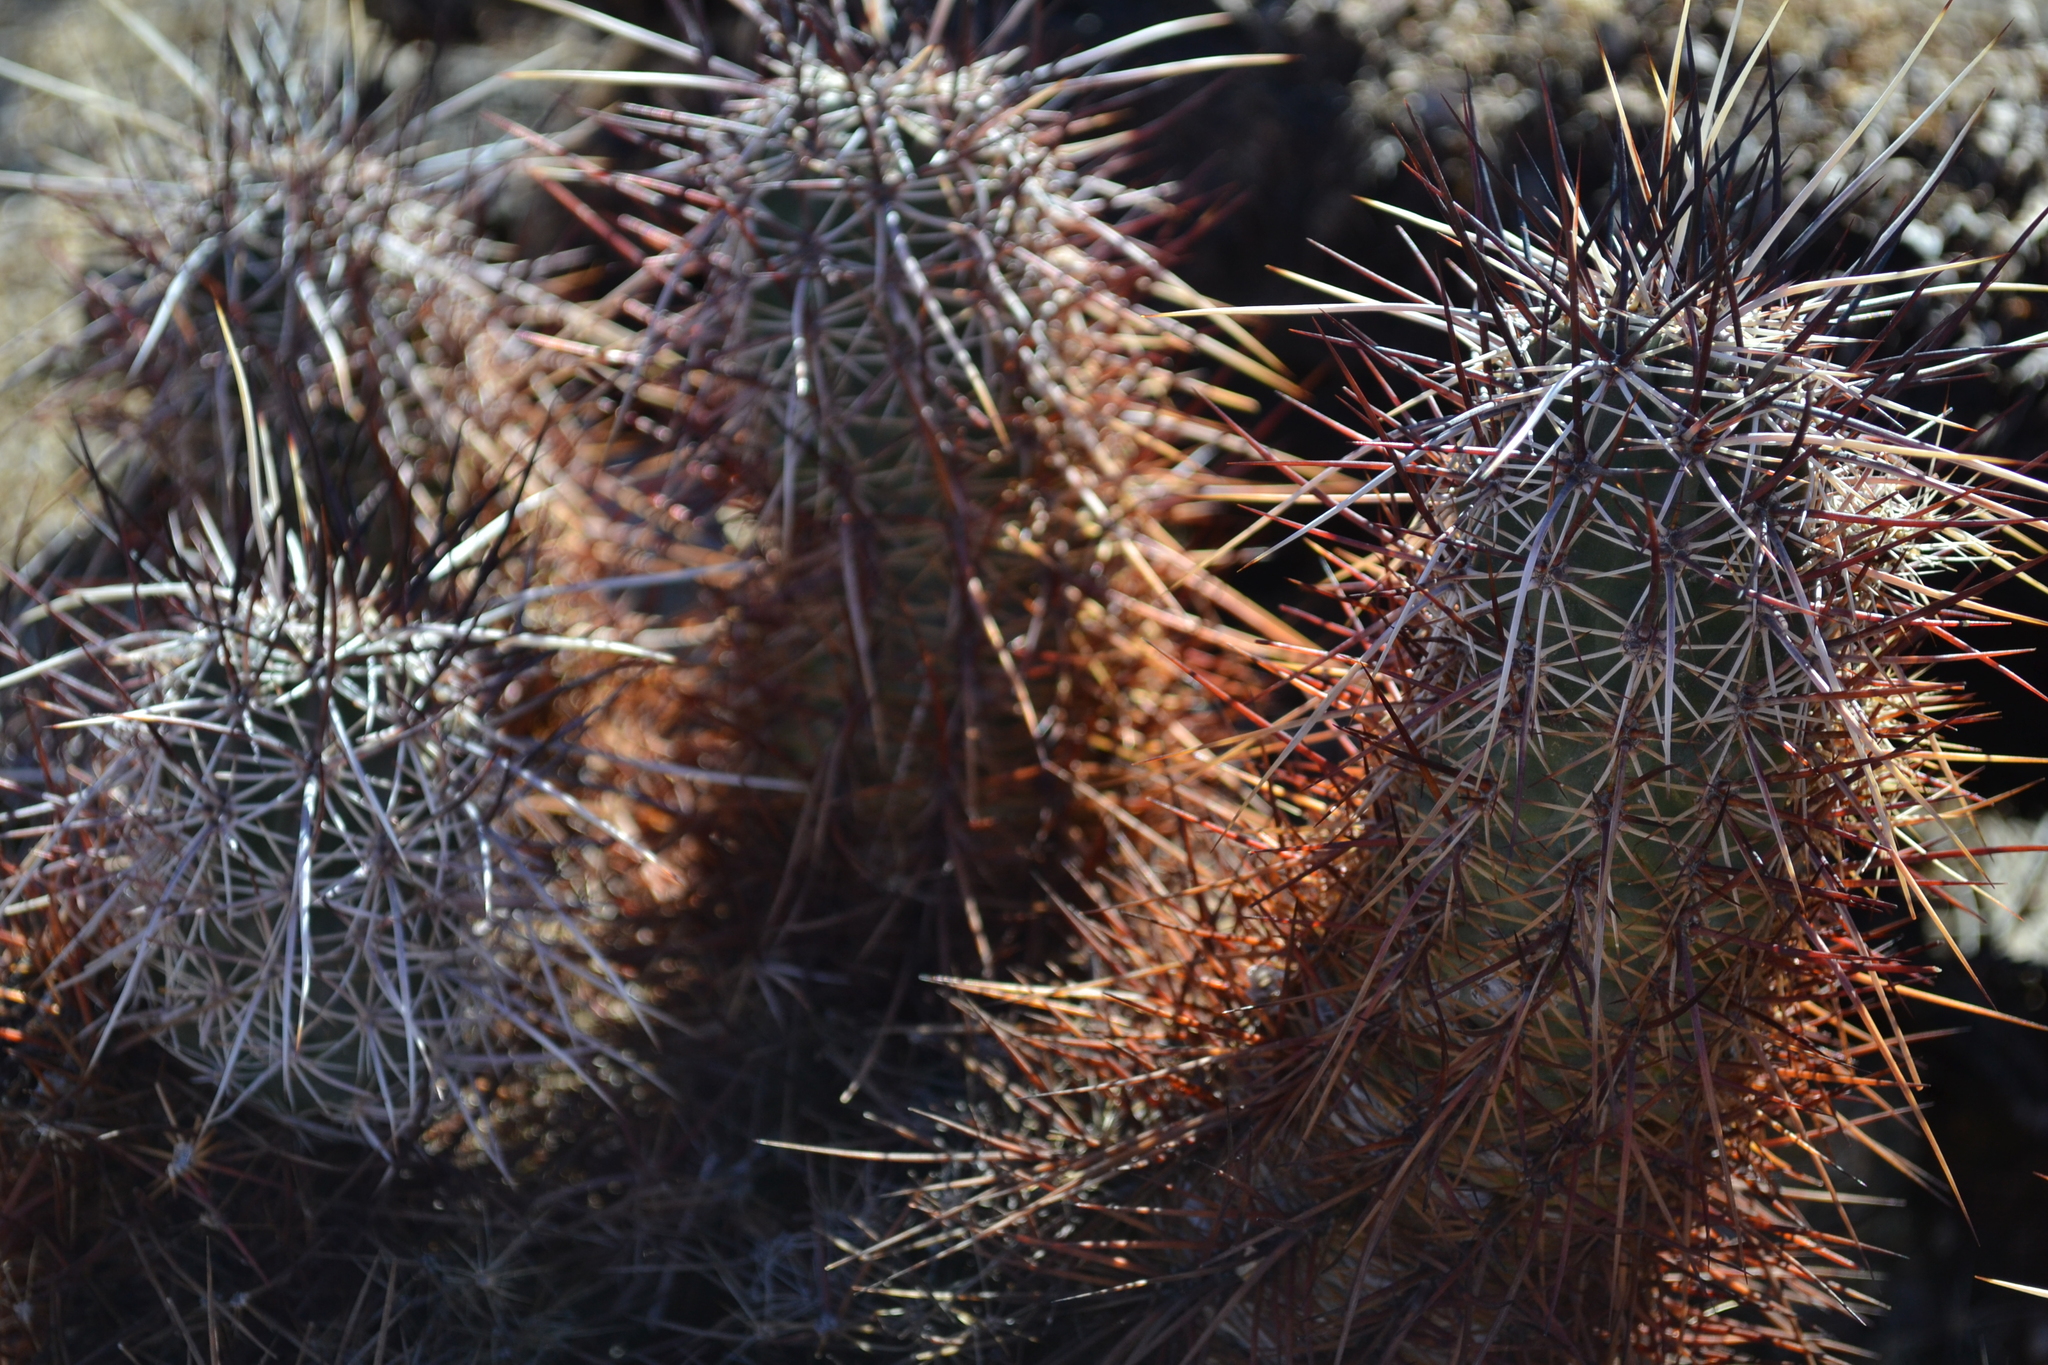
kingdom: Plantae
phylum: Tracheophyta
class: Magnoliopsida
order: Caryophyllales
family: Cactaceae
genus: Echinocereus
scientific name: Echinocereus engelmannii
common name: Engelmann's hedgehog cactus
